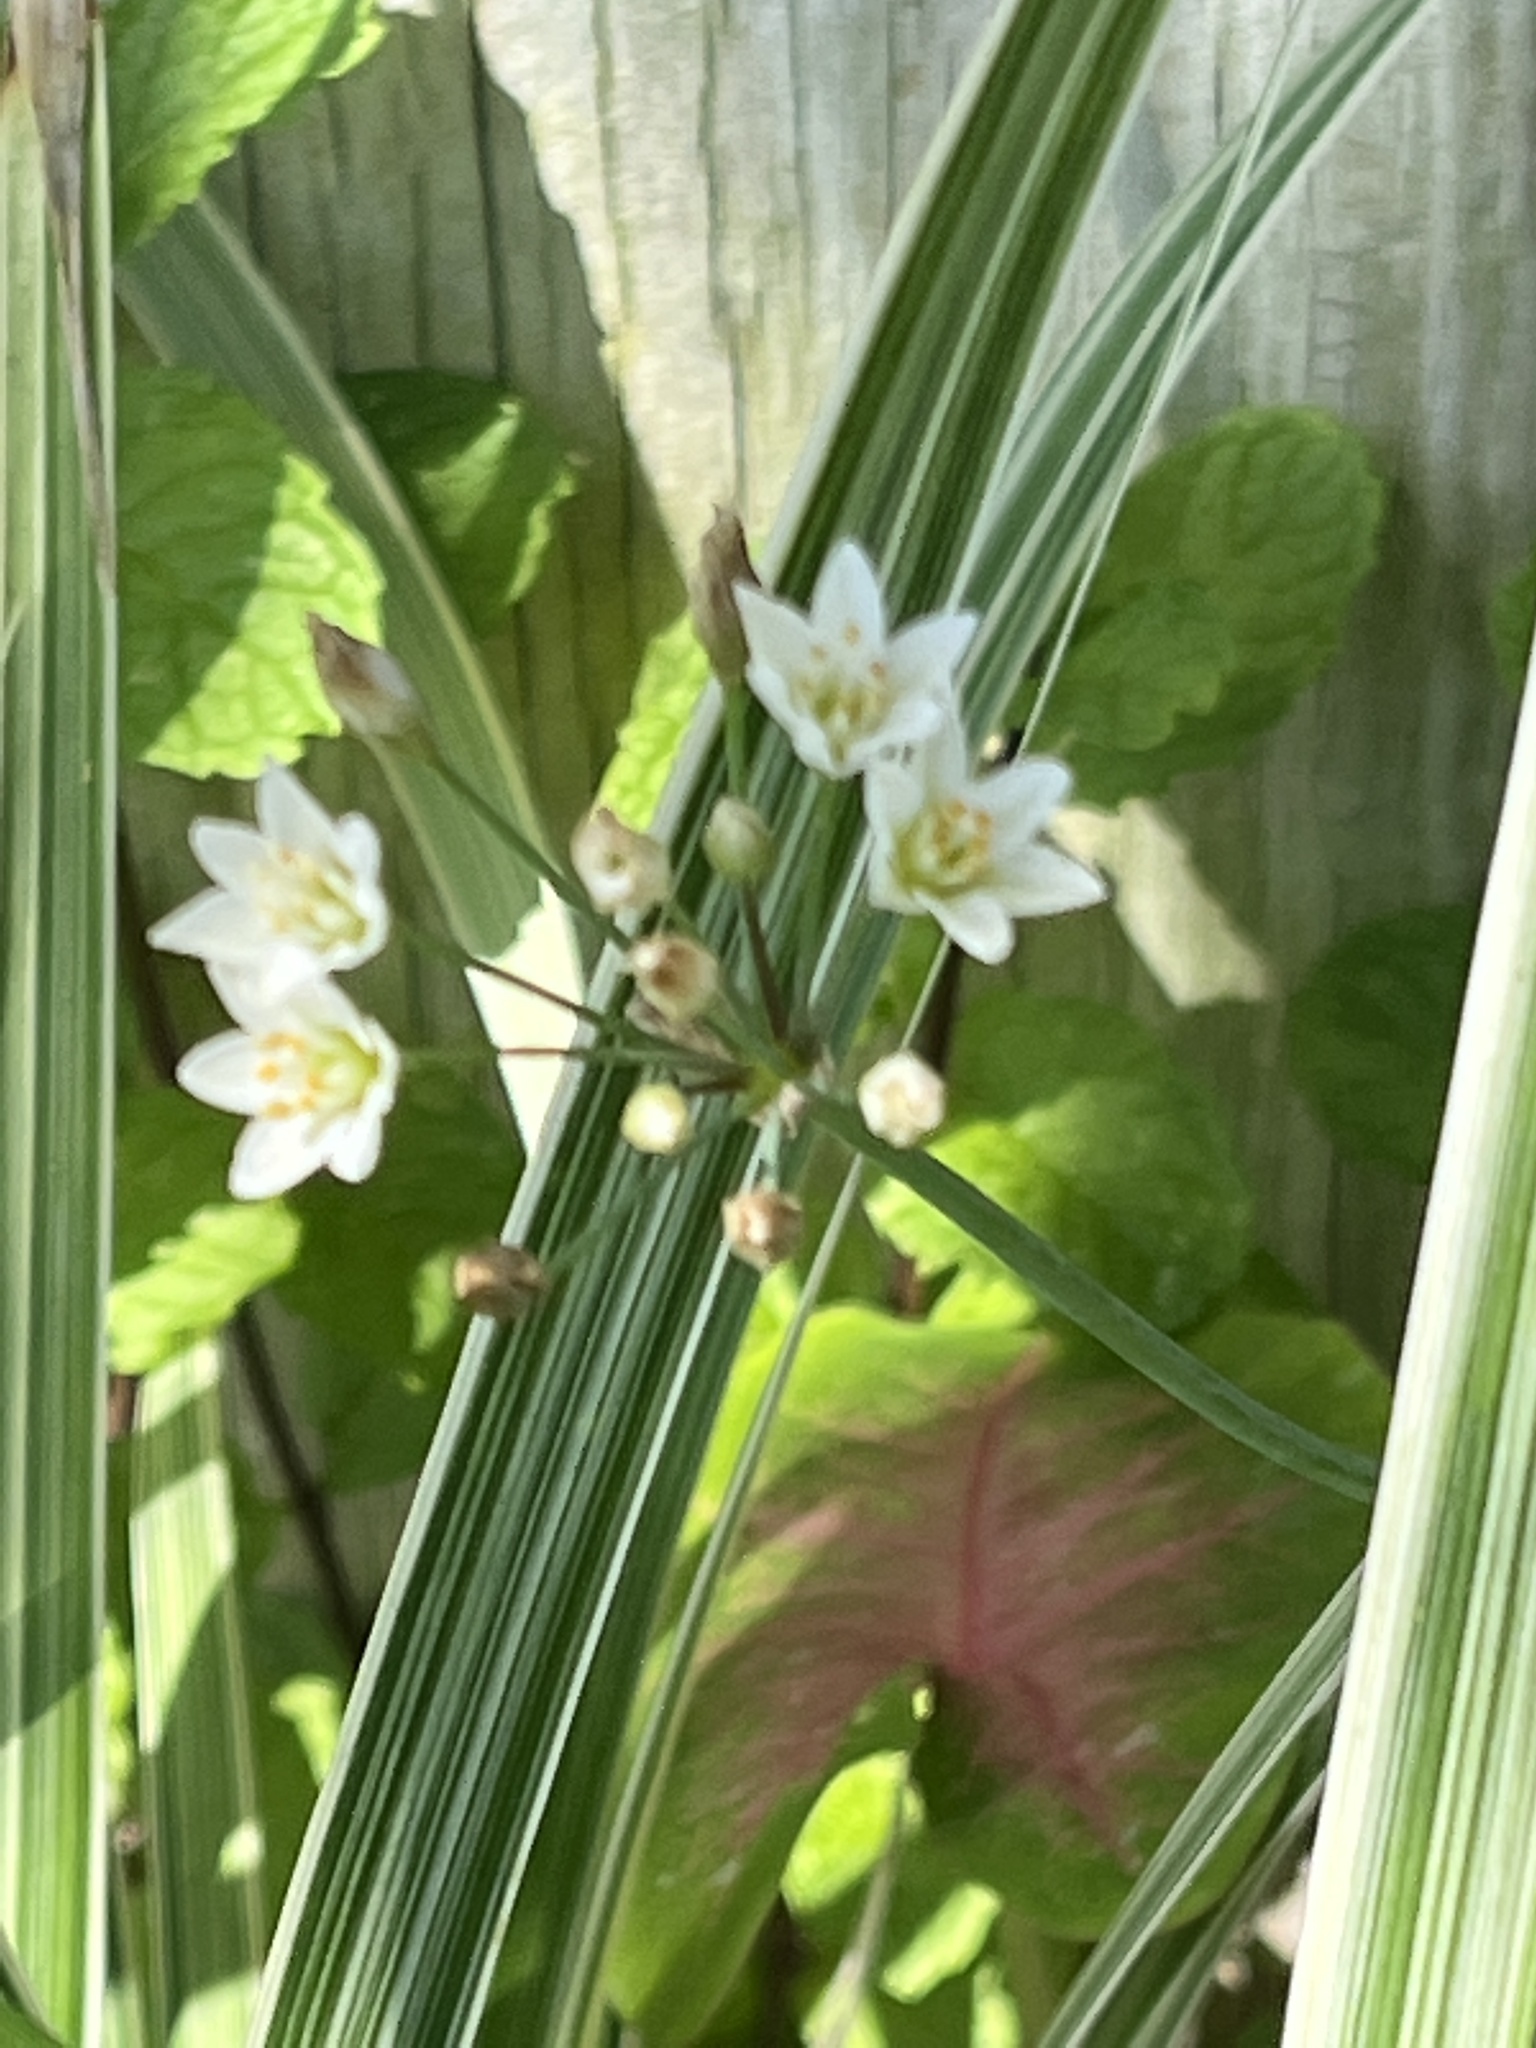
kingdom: Plantae
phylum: Tracheophyta
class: Liliopsida
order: Asparagales
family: Amaryllidaceae
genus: Nothoscordum
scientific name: Nothoscordum gracile
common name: Slender false garlic
